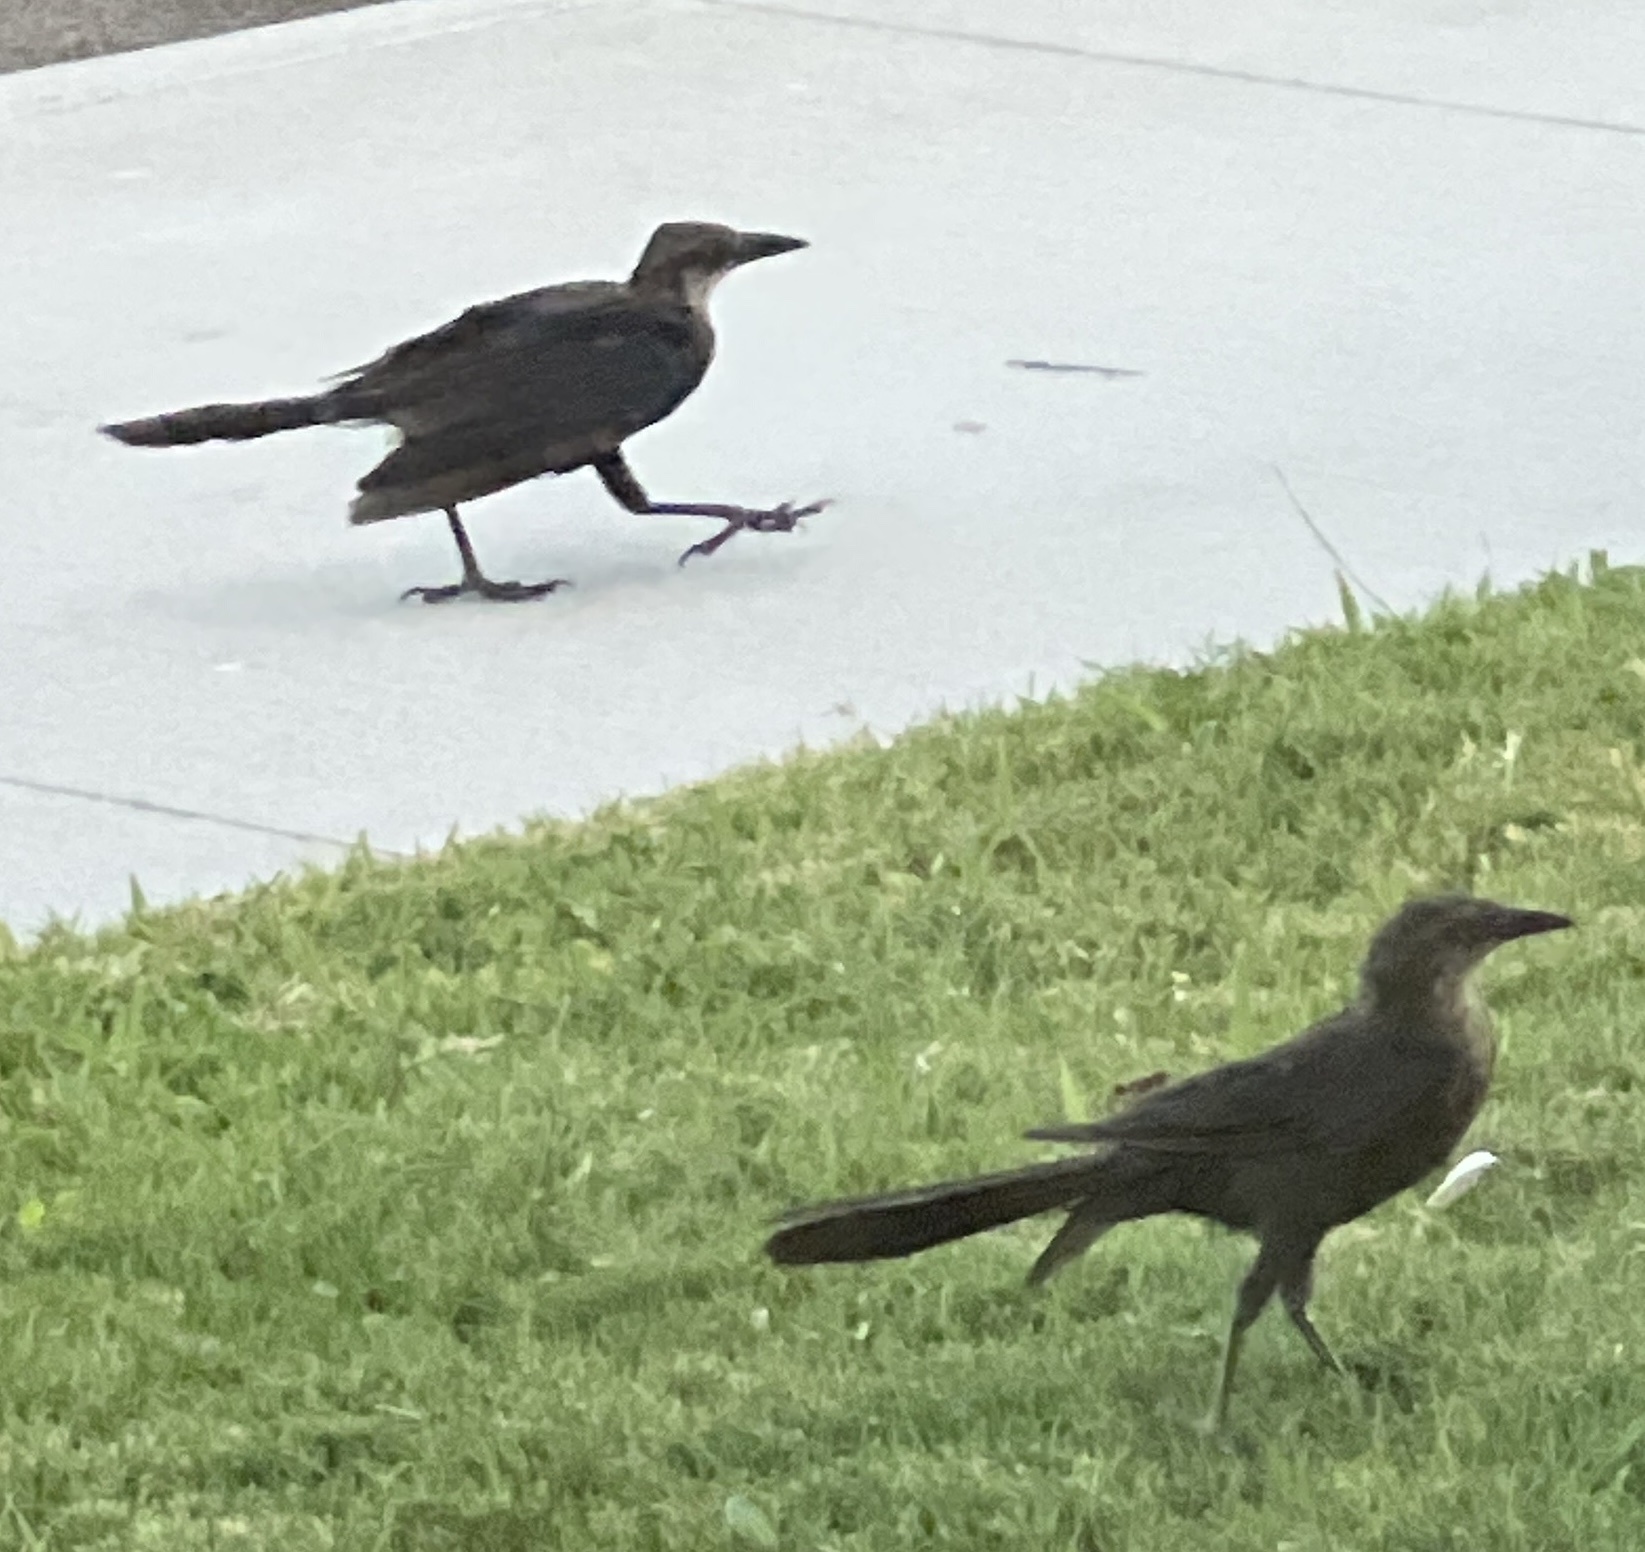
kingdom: Animalia
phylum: Chordata
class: Aves
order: Passeriformes
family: Icteridae
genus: Quiscalus
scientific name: Quiscalus mexicanus
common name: Great-tailed grackle
